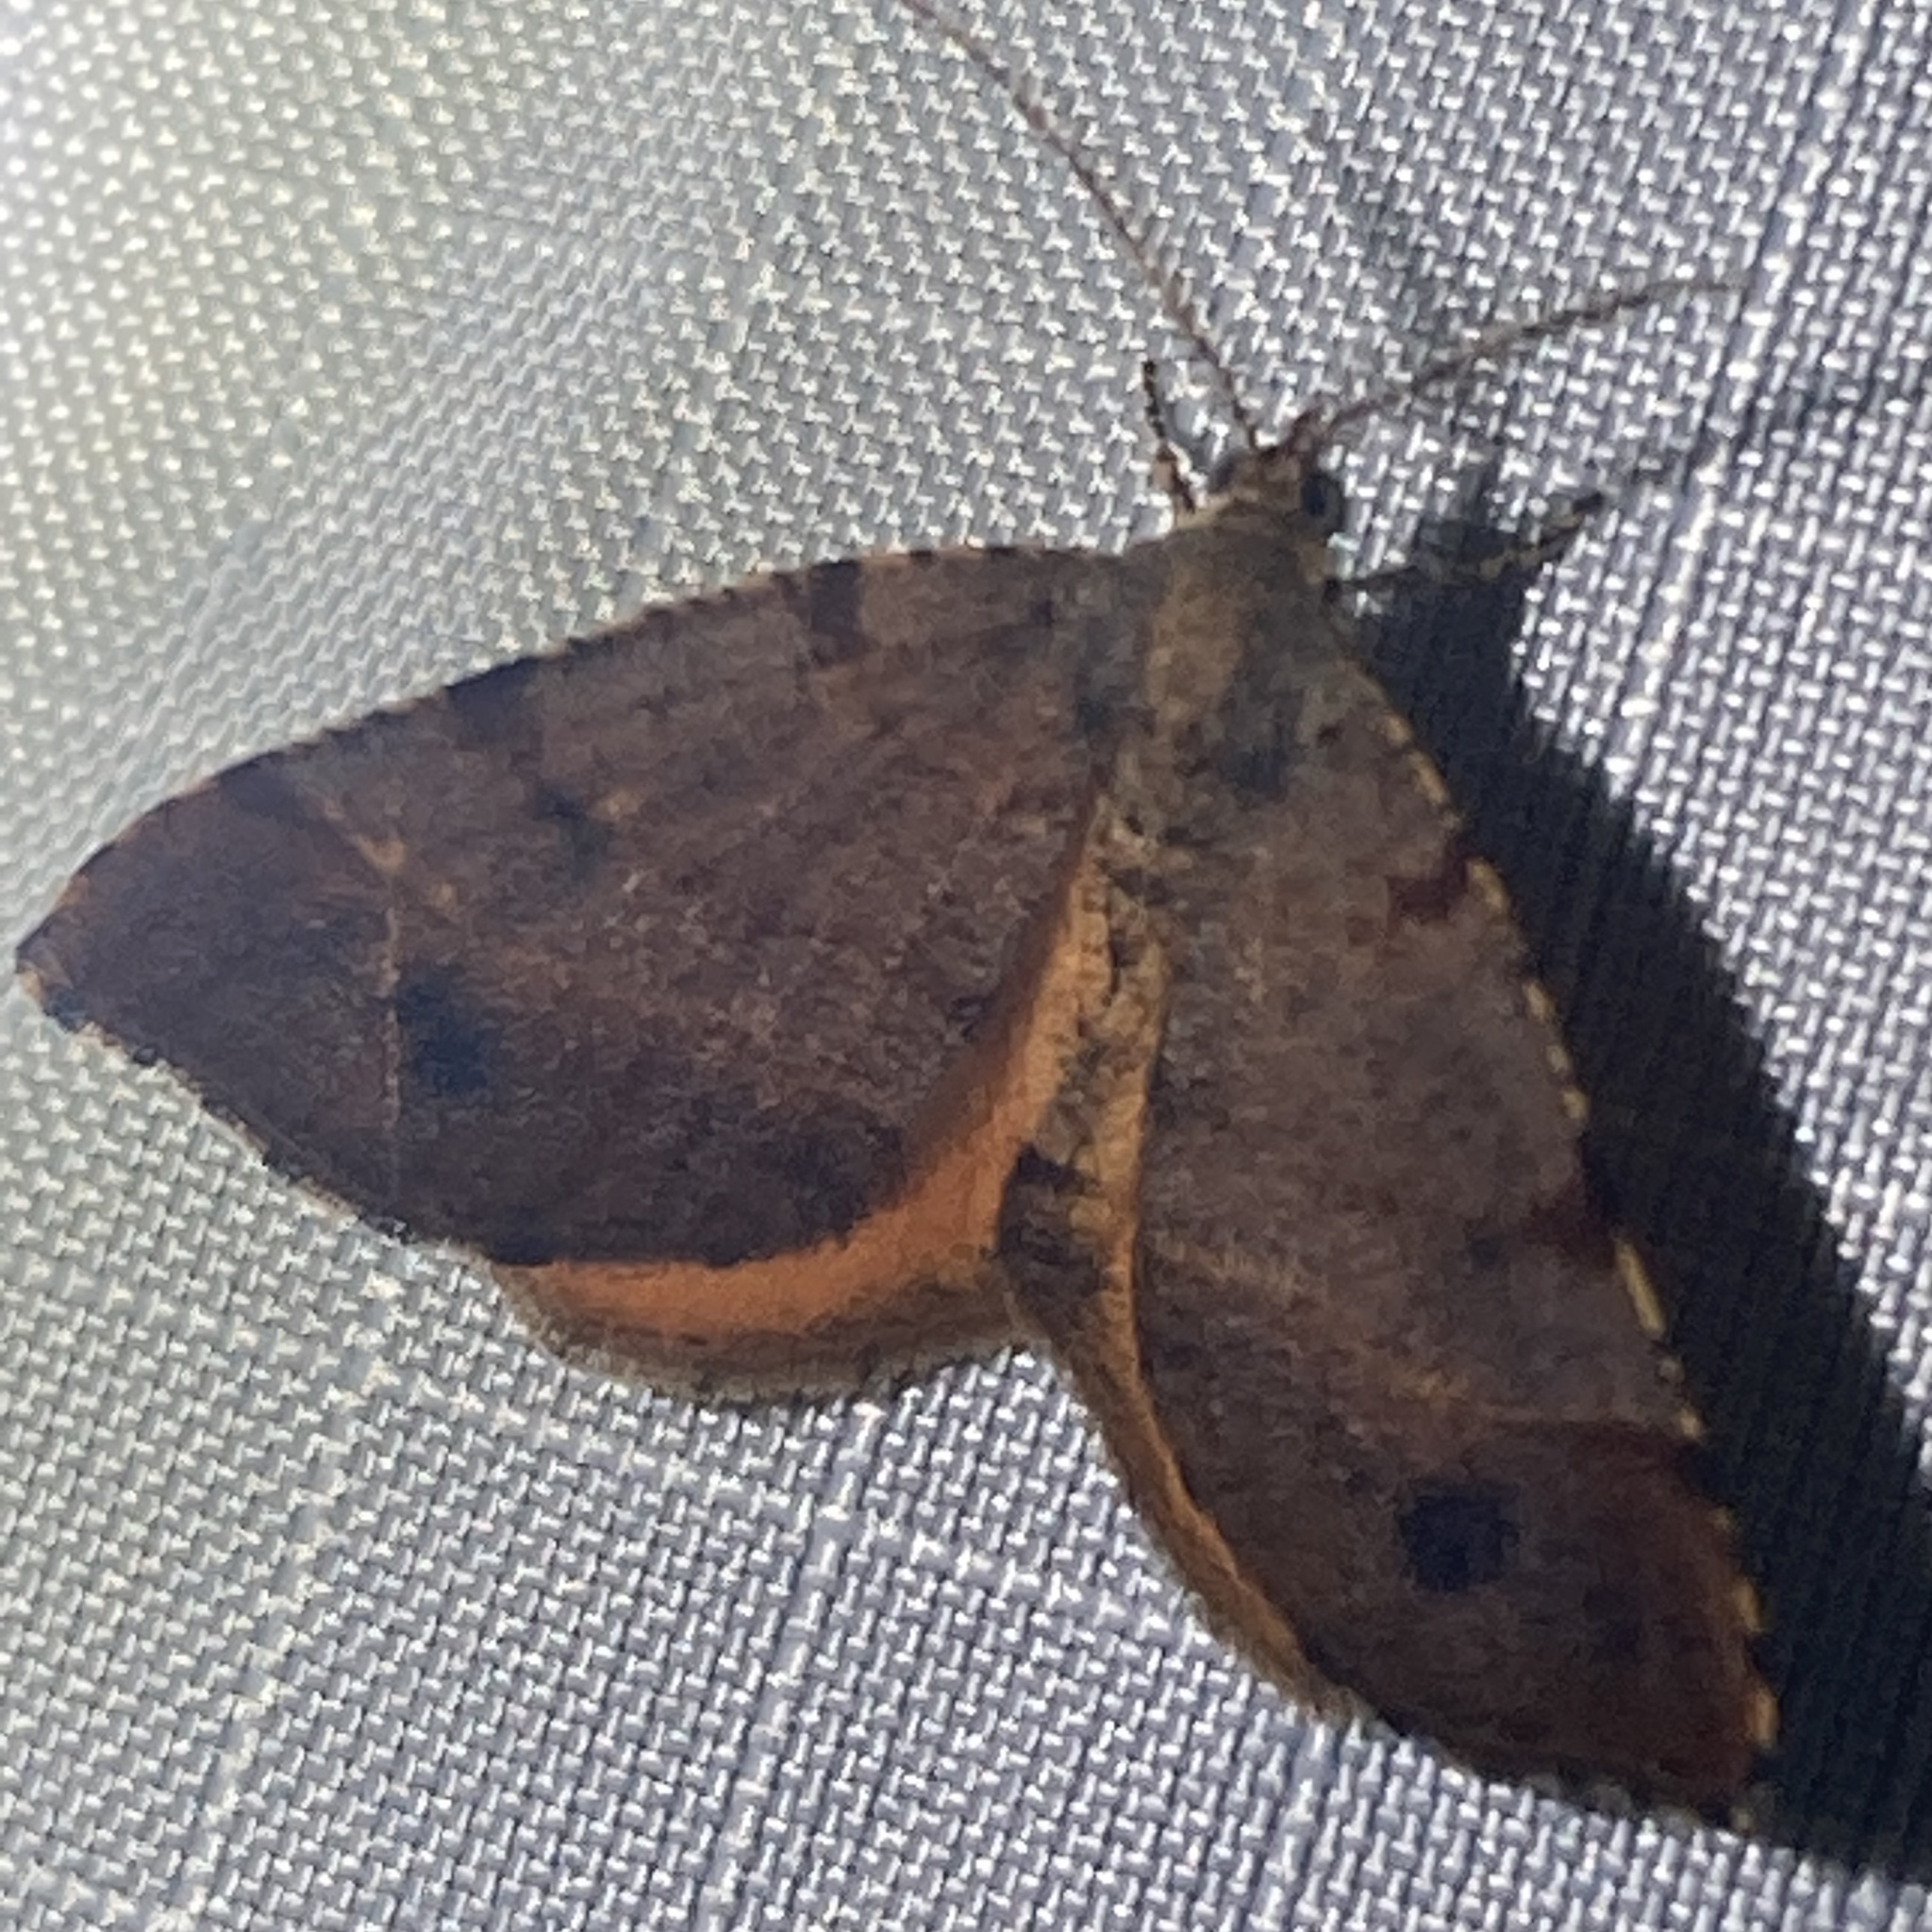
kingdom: Animalia
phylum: Arthropoda
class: Insecta
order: Lepidoptera
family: Geometridae
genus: Mellilla
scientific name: Mellilla xanthometata
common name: Orange wing moth
